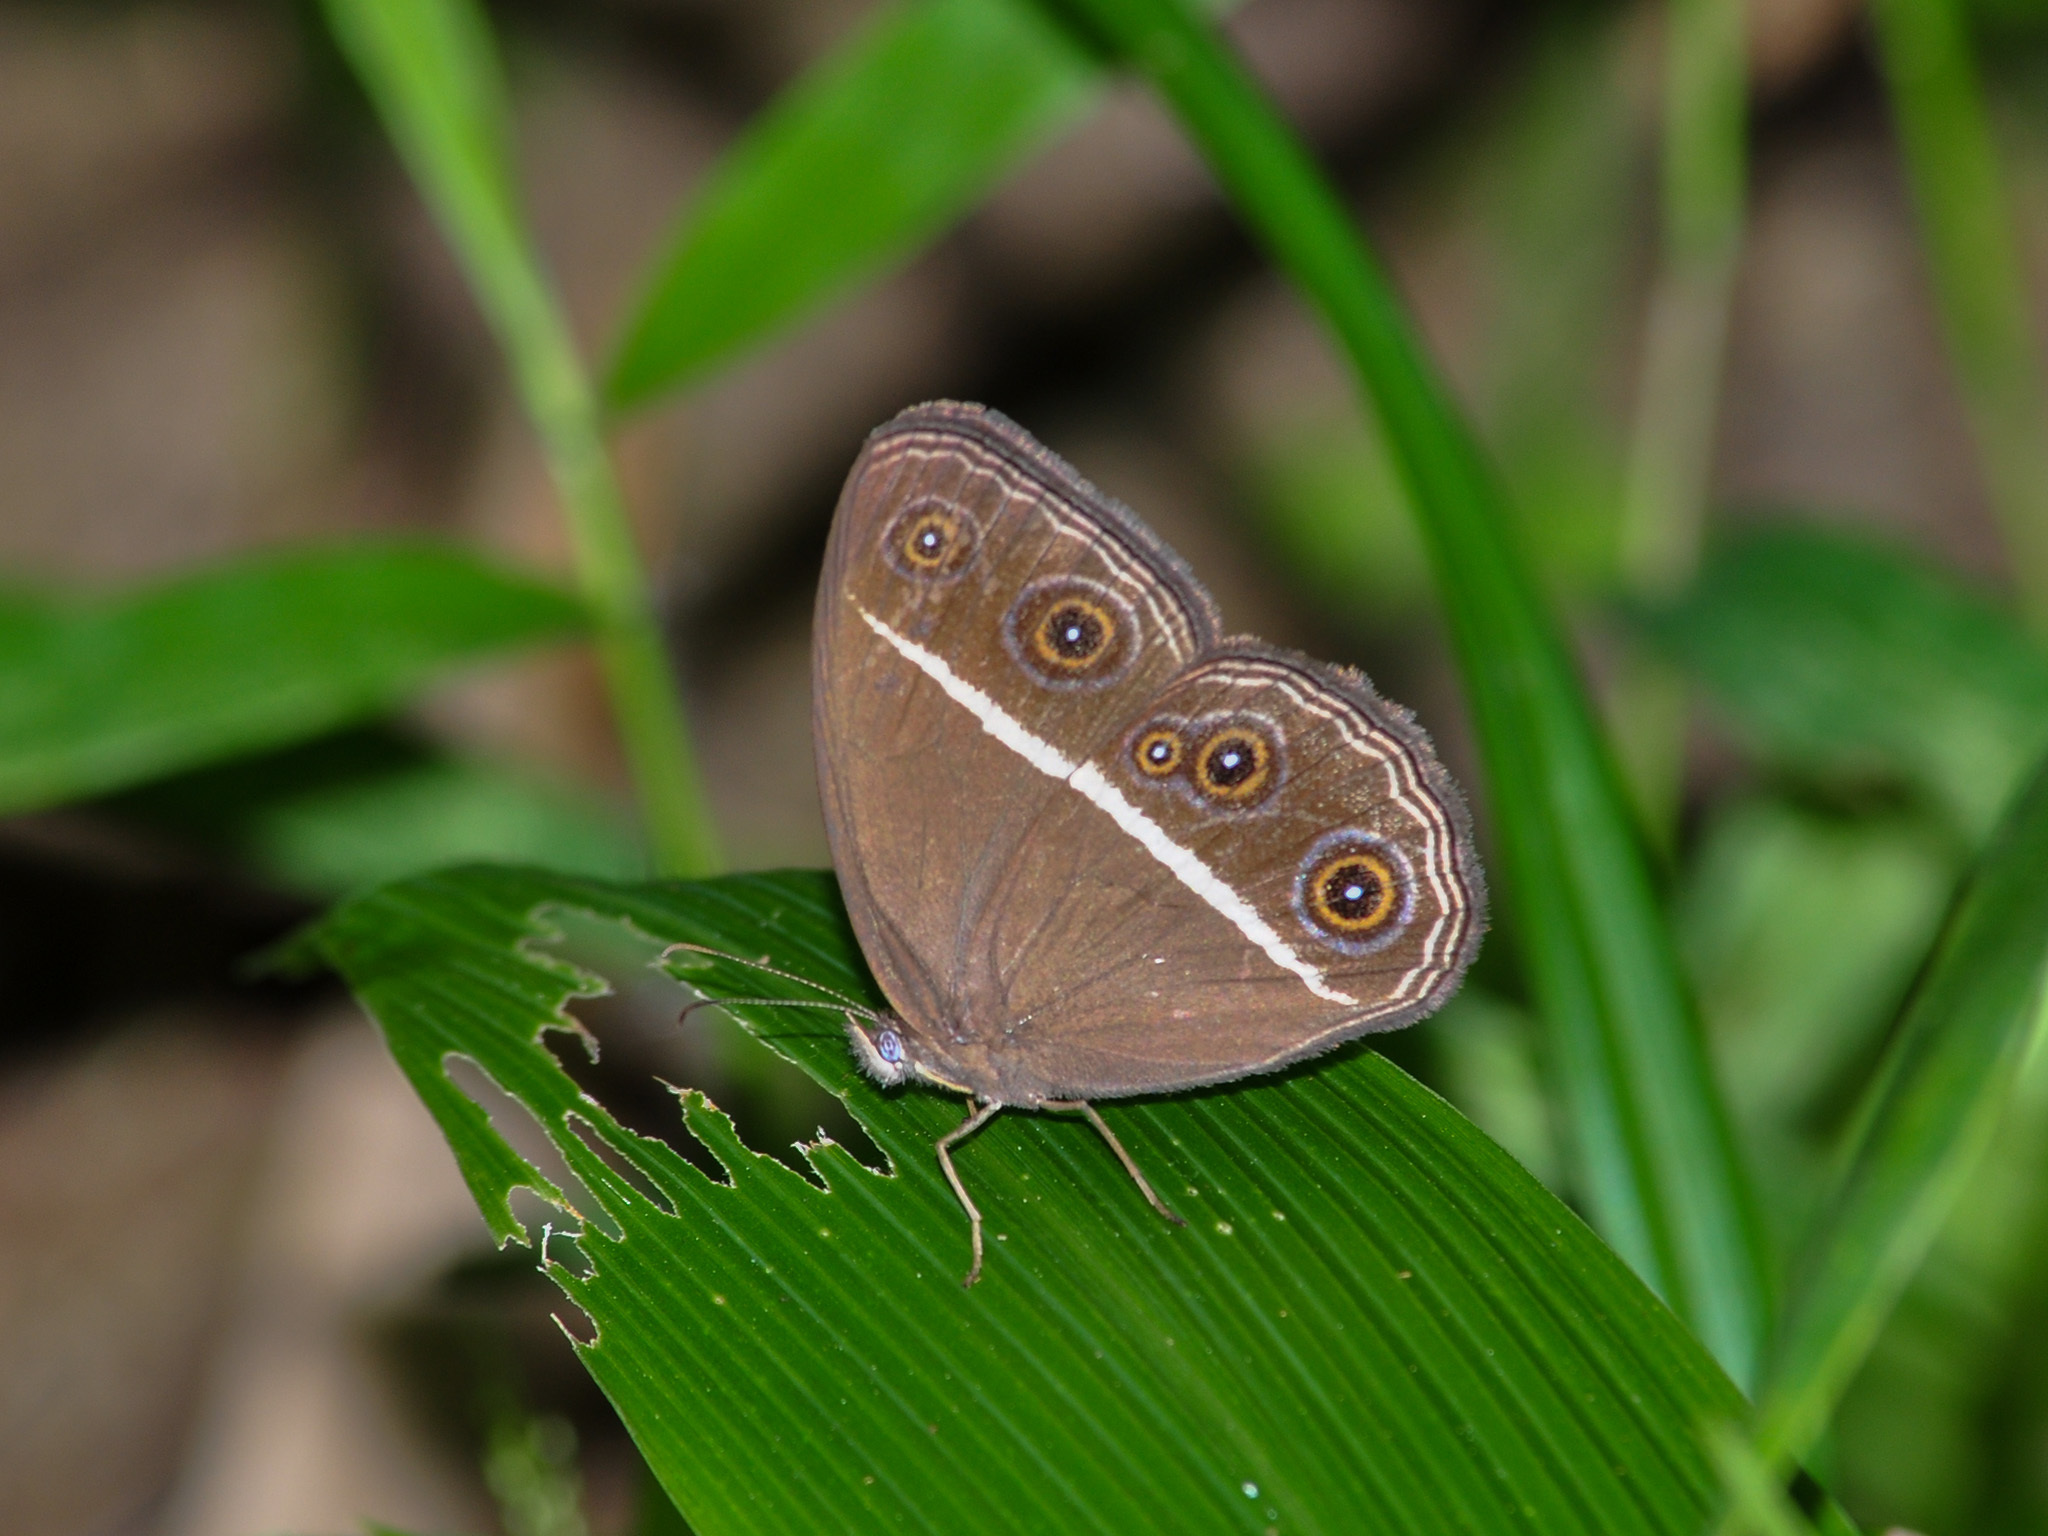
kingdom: Animalia
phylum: Arthropoda
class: Insecta
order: Lepidoptera
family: Nymphalidae
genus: Orsotriaena
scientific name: Orsotriaena medus
